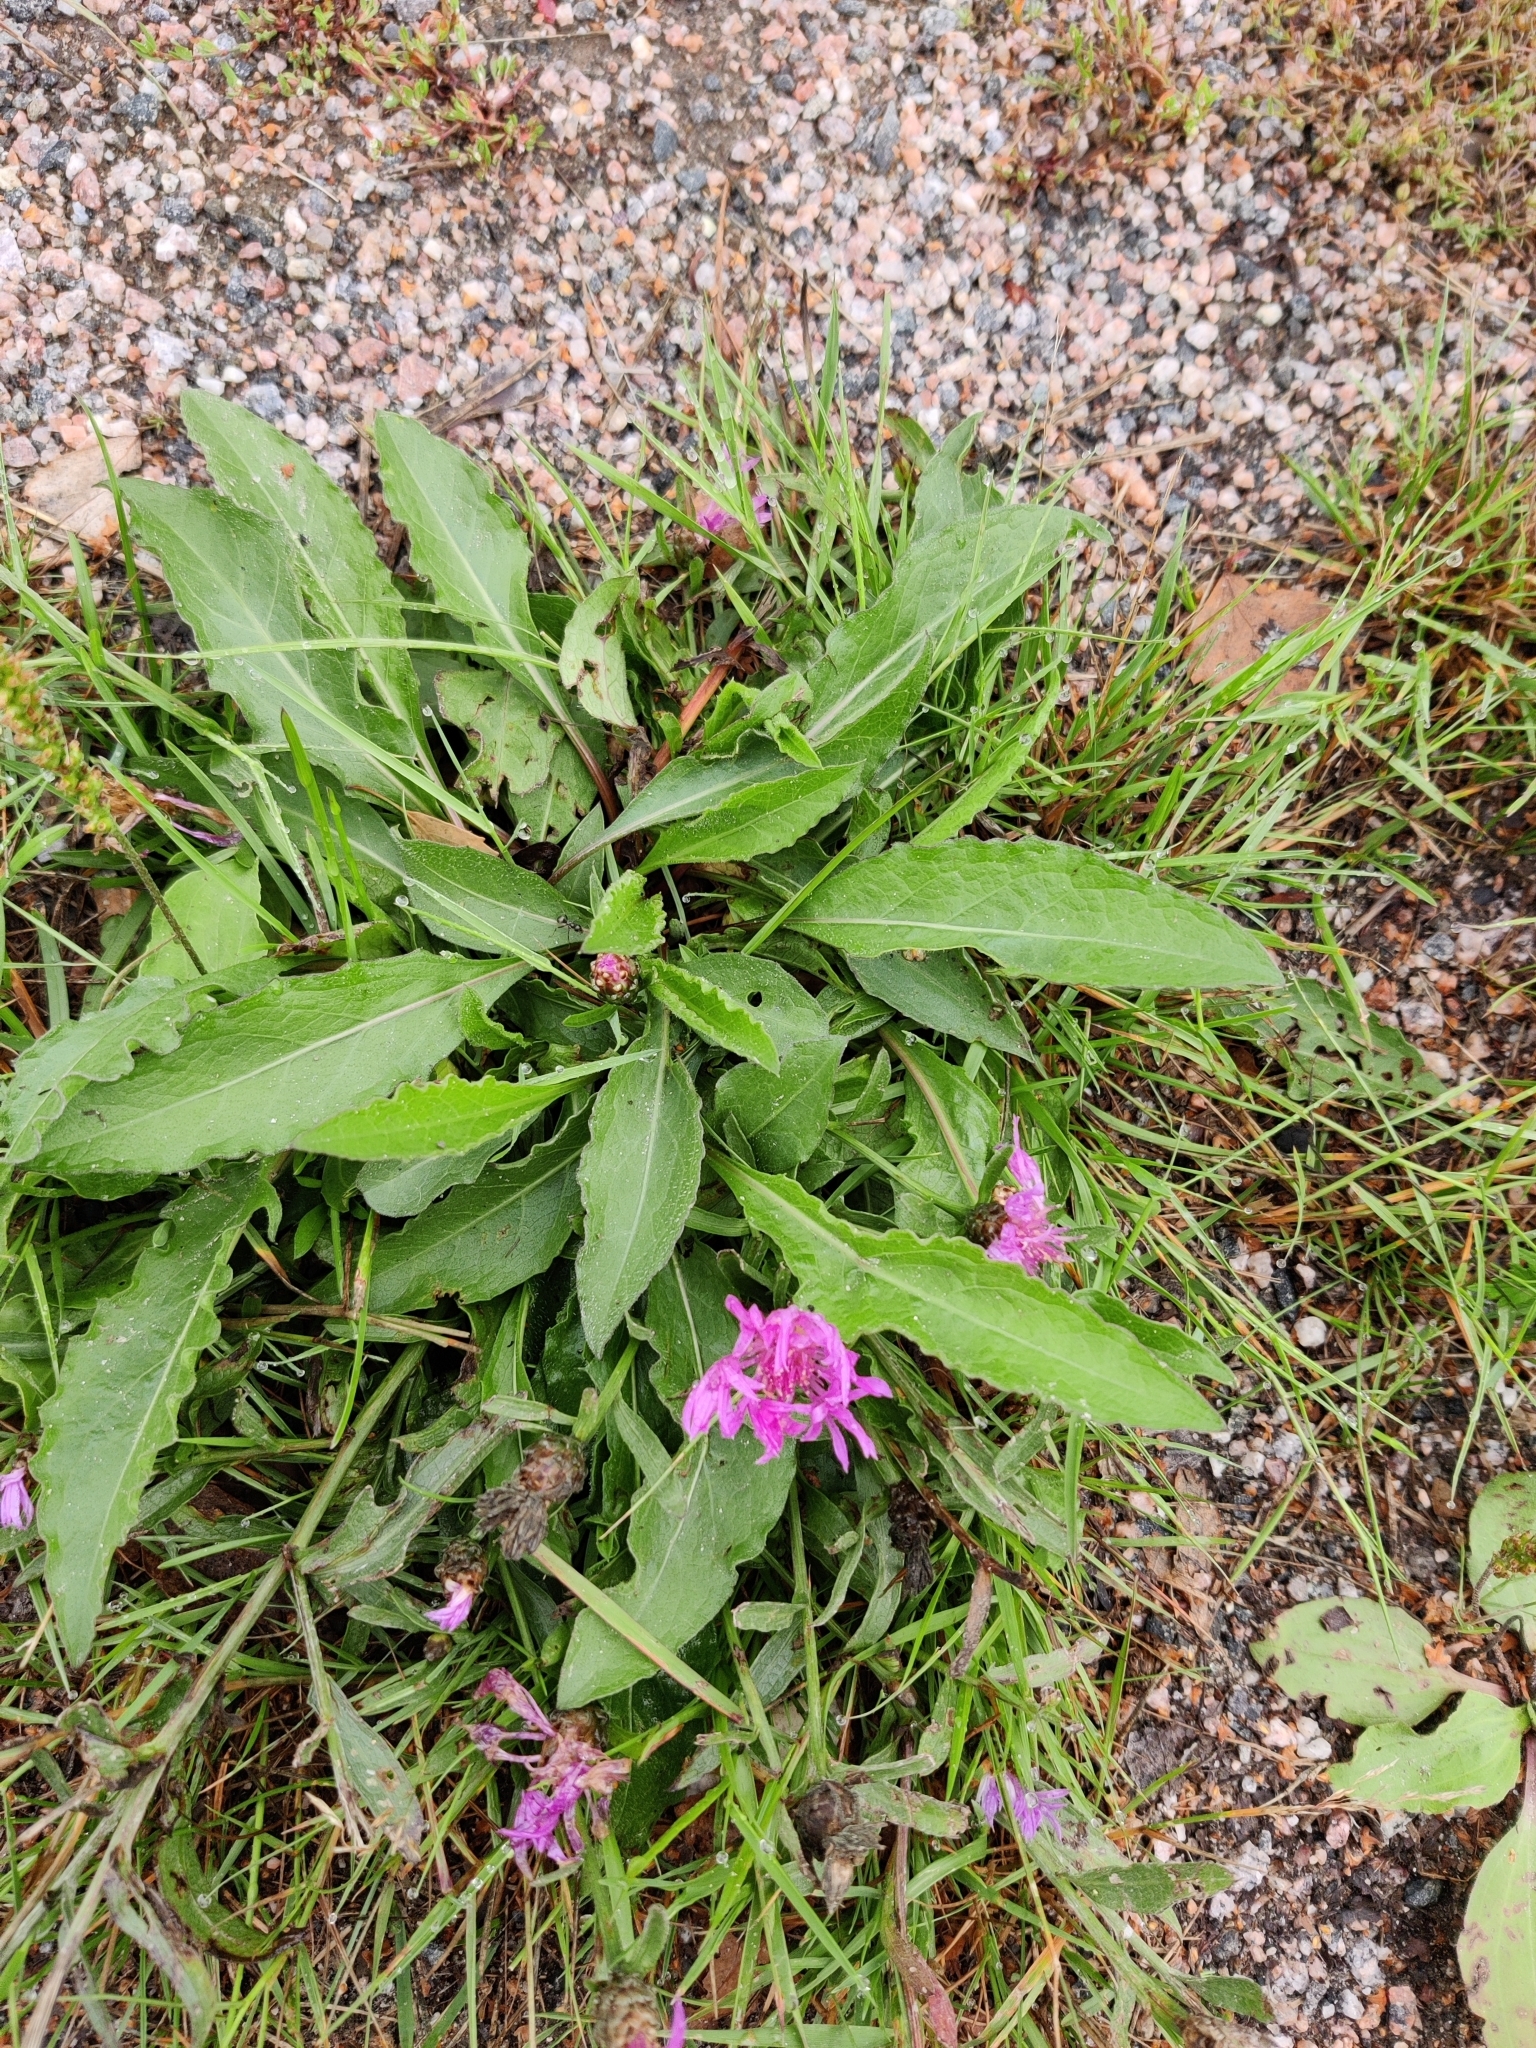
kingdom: Plantae
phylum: Tracheophyta
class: Magnoliopsida
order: Asterales
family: Asteraceae
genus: Centaurea
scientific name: Centaurea jacea
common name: Brown knapweed
